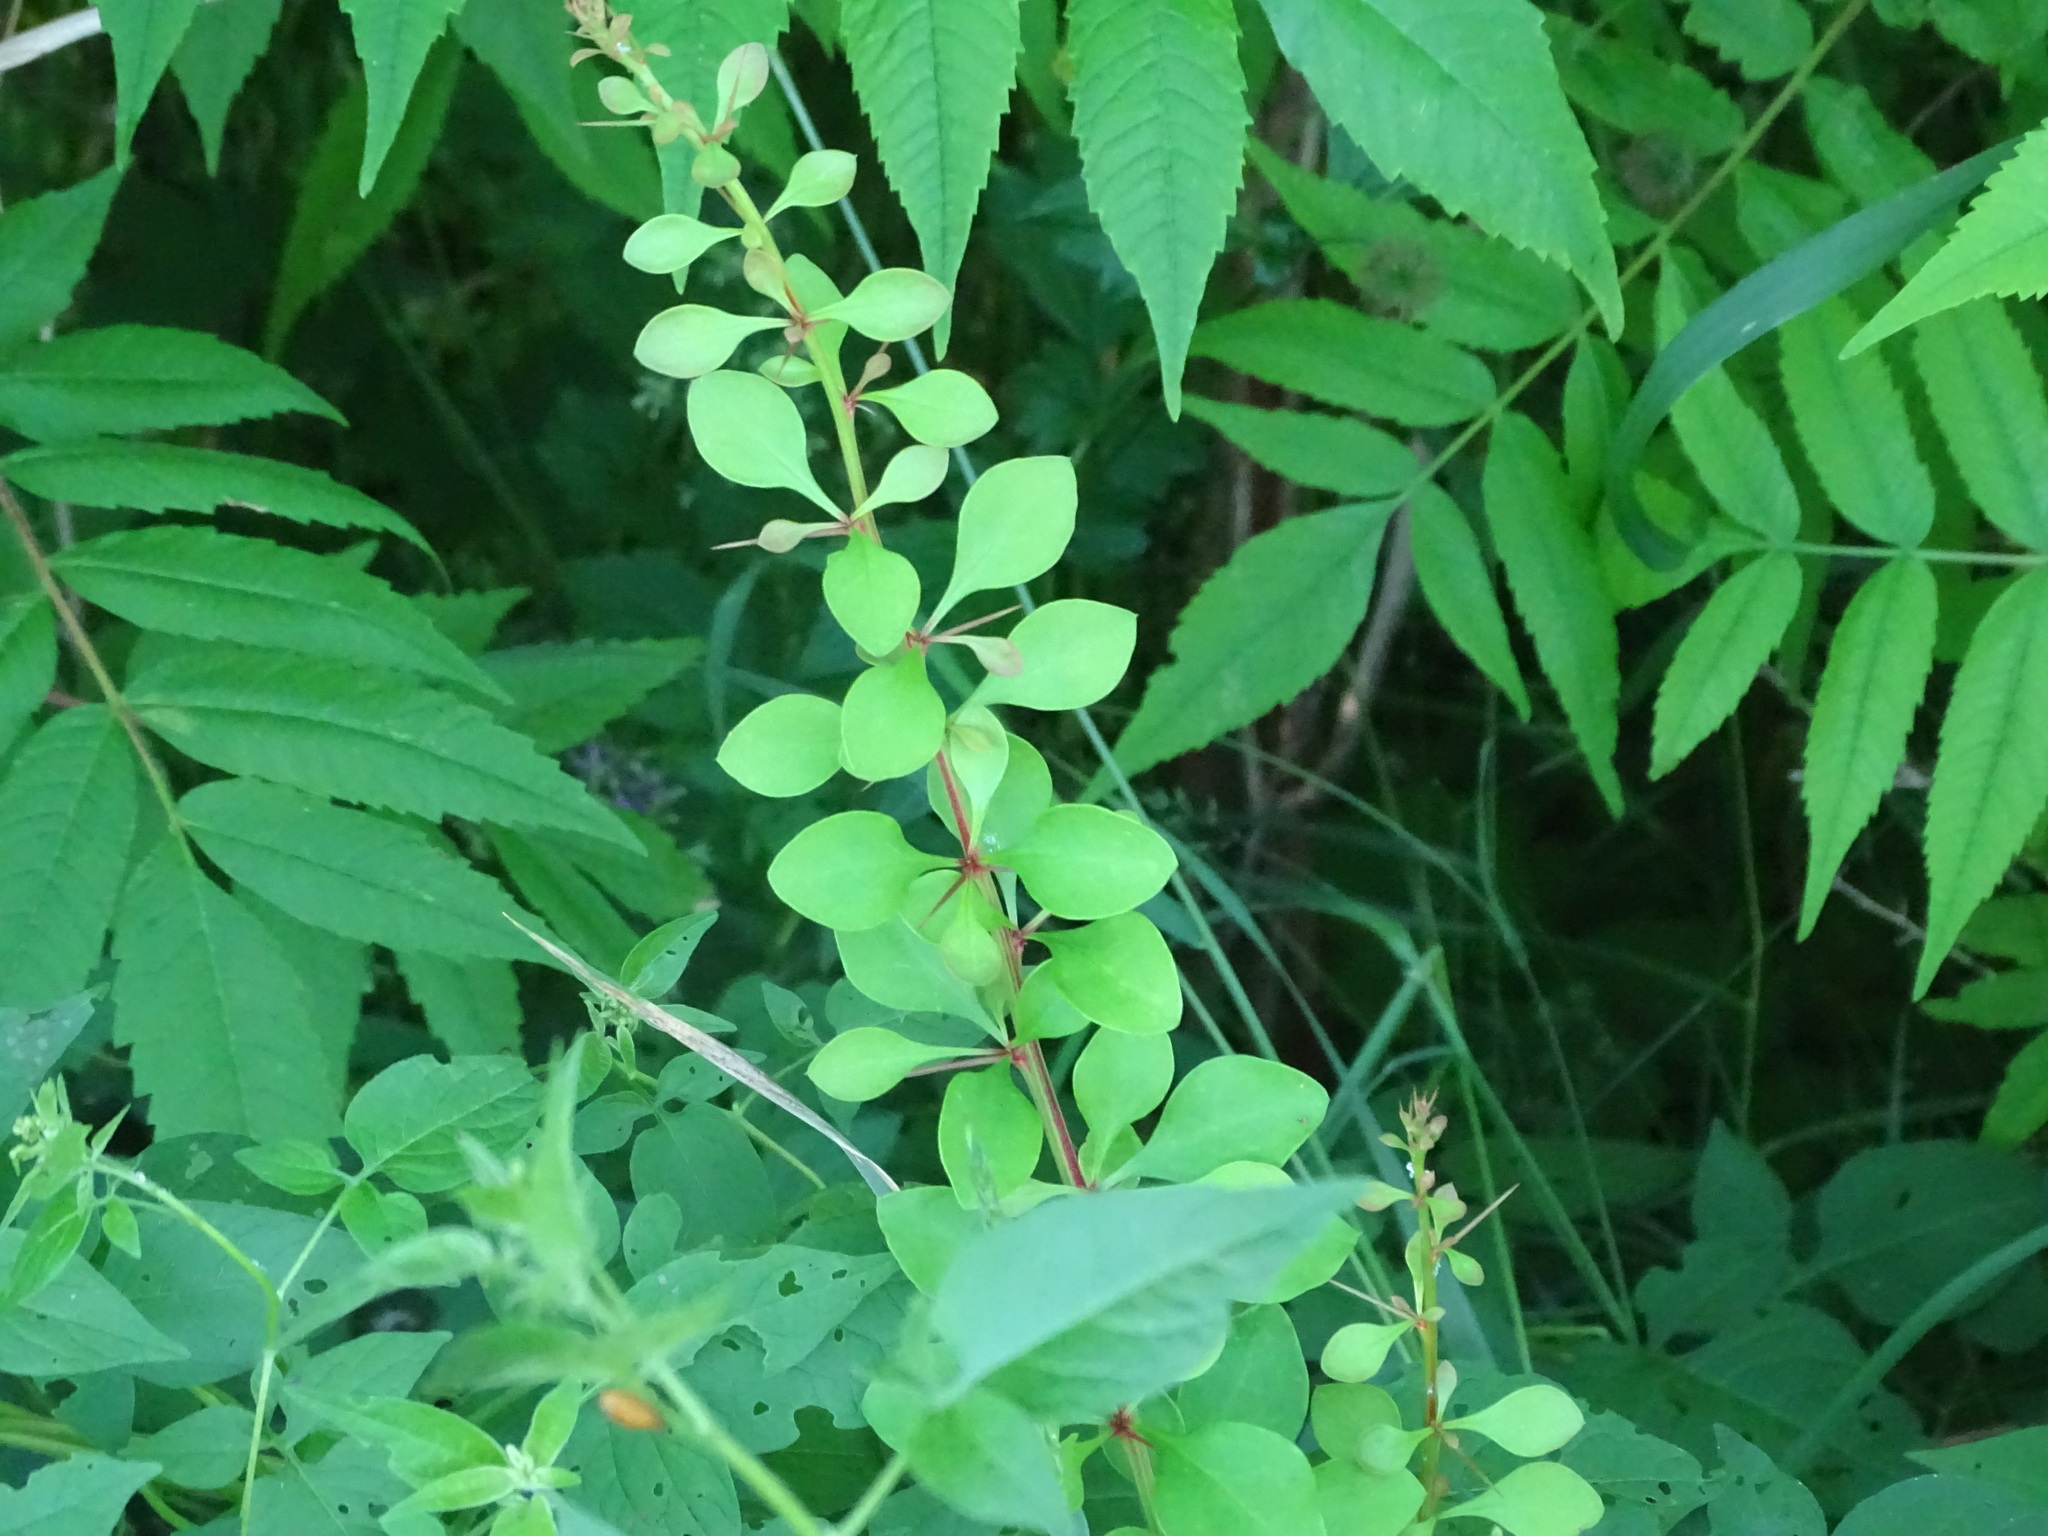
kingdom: Plantae
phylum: Tracheophyta
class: Magnoliopsida
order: Ranunculales
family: Berberidaceae
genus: Berberis
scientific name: Berberis thunbergii
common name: Japanese barberry
